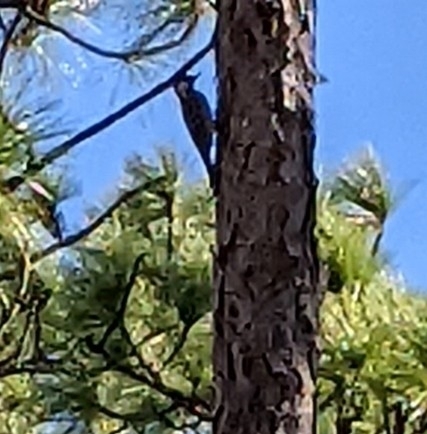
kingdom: Animalia
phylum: Chordata
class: Aves
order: Piciformes
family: Picidae
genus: Leuconotopicus
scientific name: Leuconotopicus borealis
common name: Red-cockaded woodpecker
